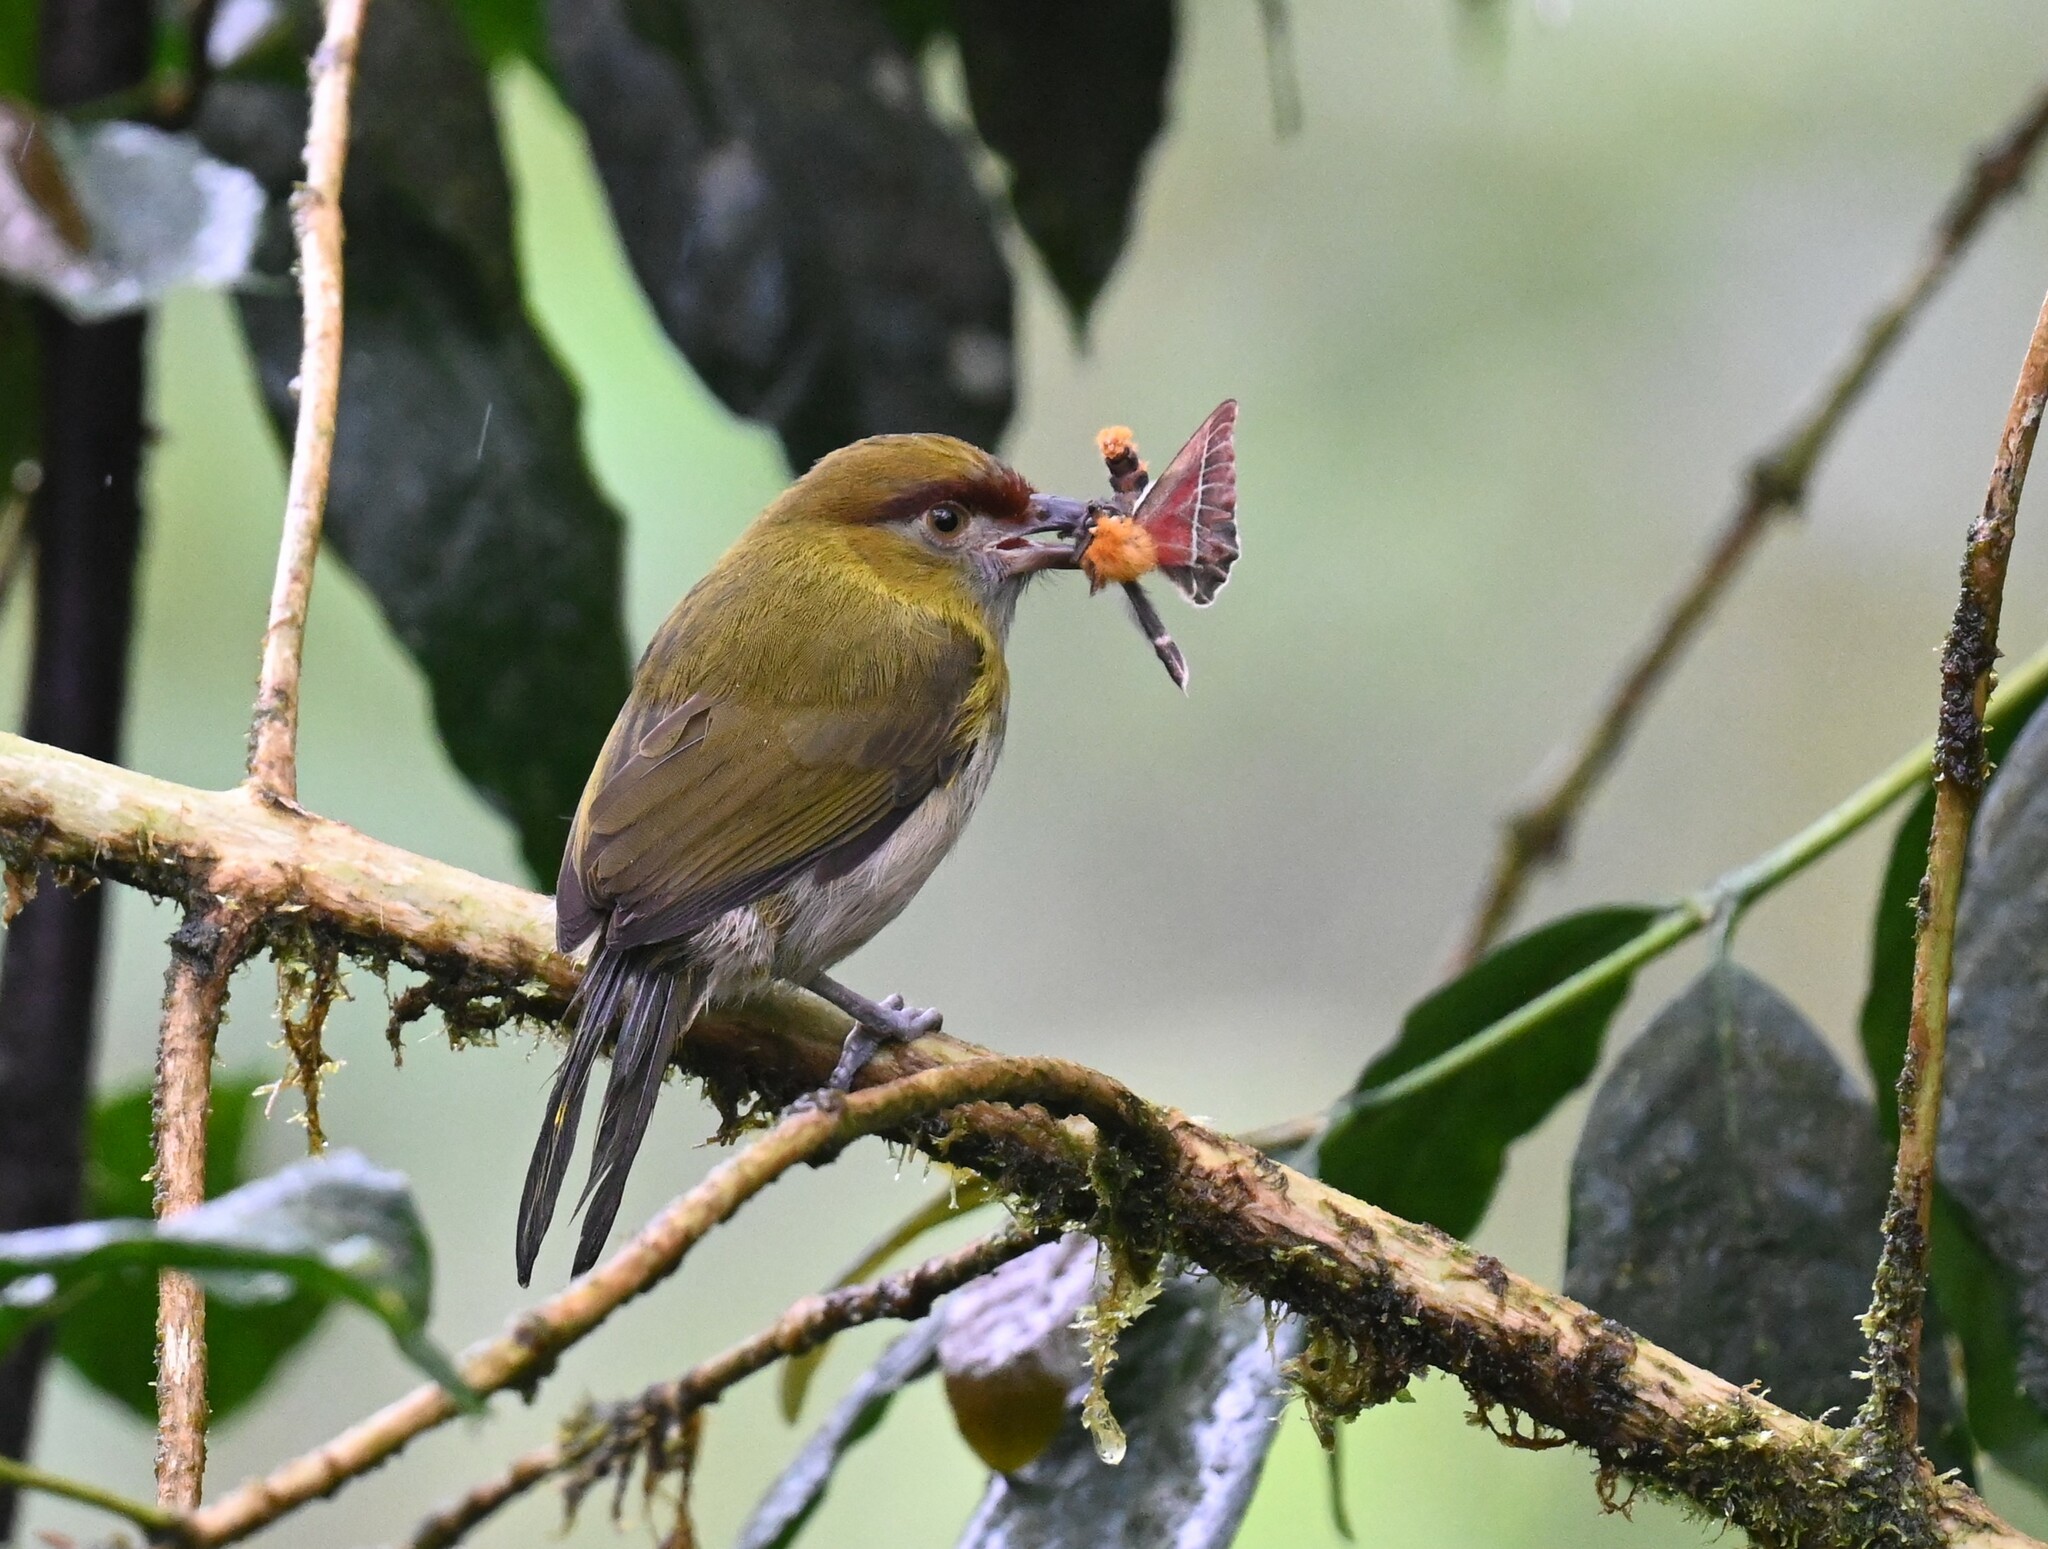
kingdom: Animalia
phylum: Chordata
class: Aves
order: Passeriformes
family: Vireonidae
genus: Cyclarhis
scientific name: Cyclarhis nigrirostris
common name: Black-billed peppershrike
